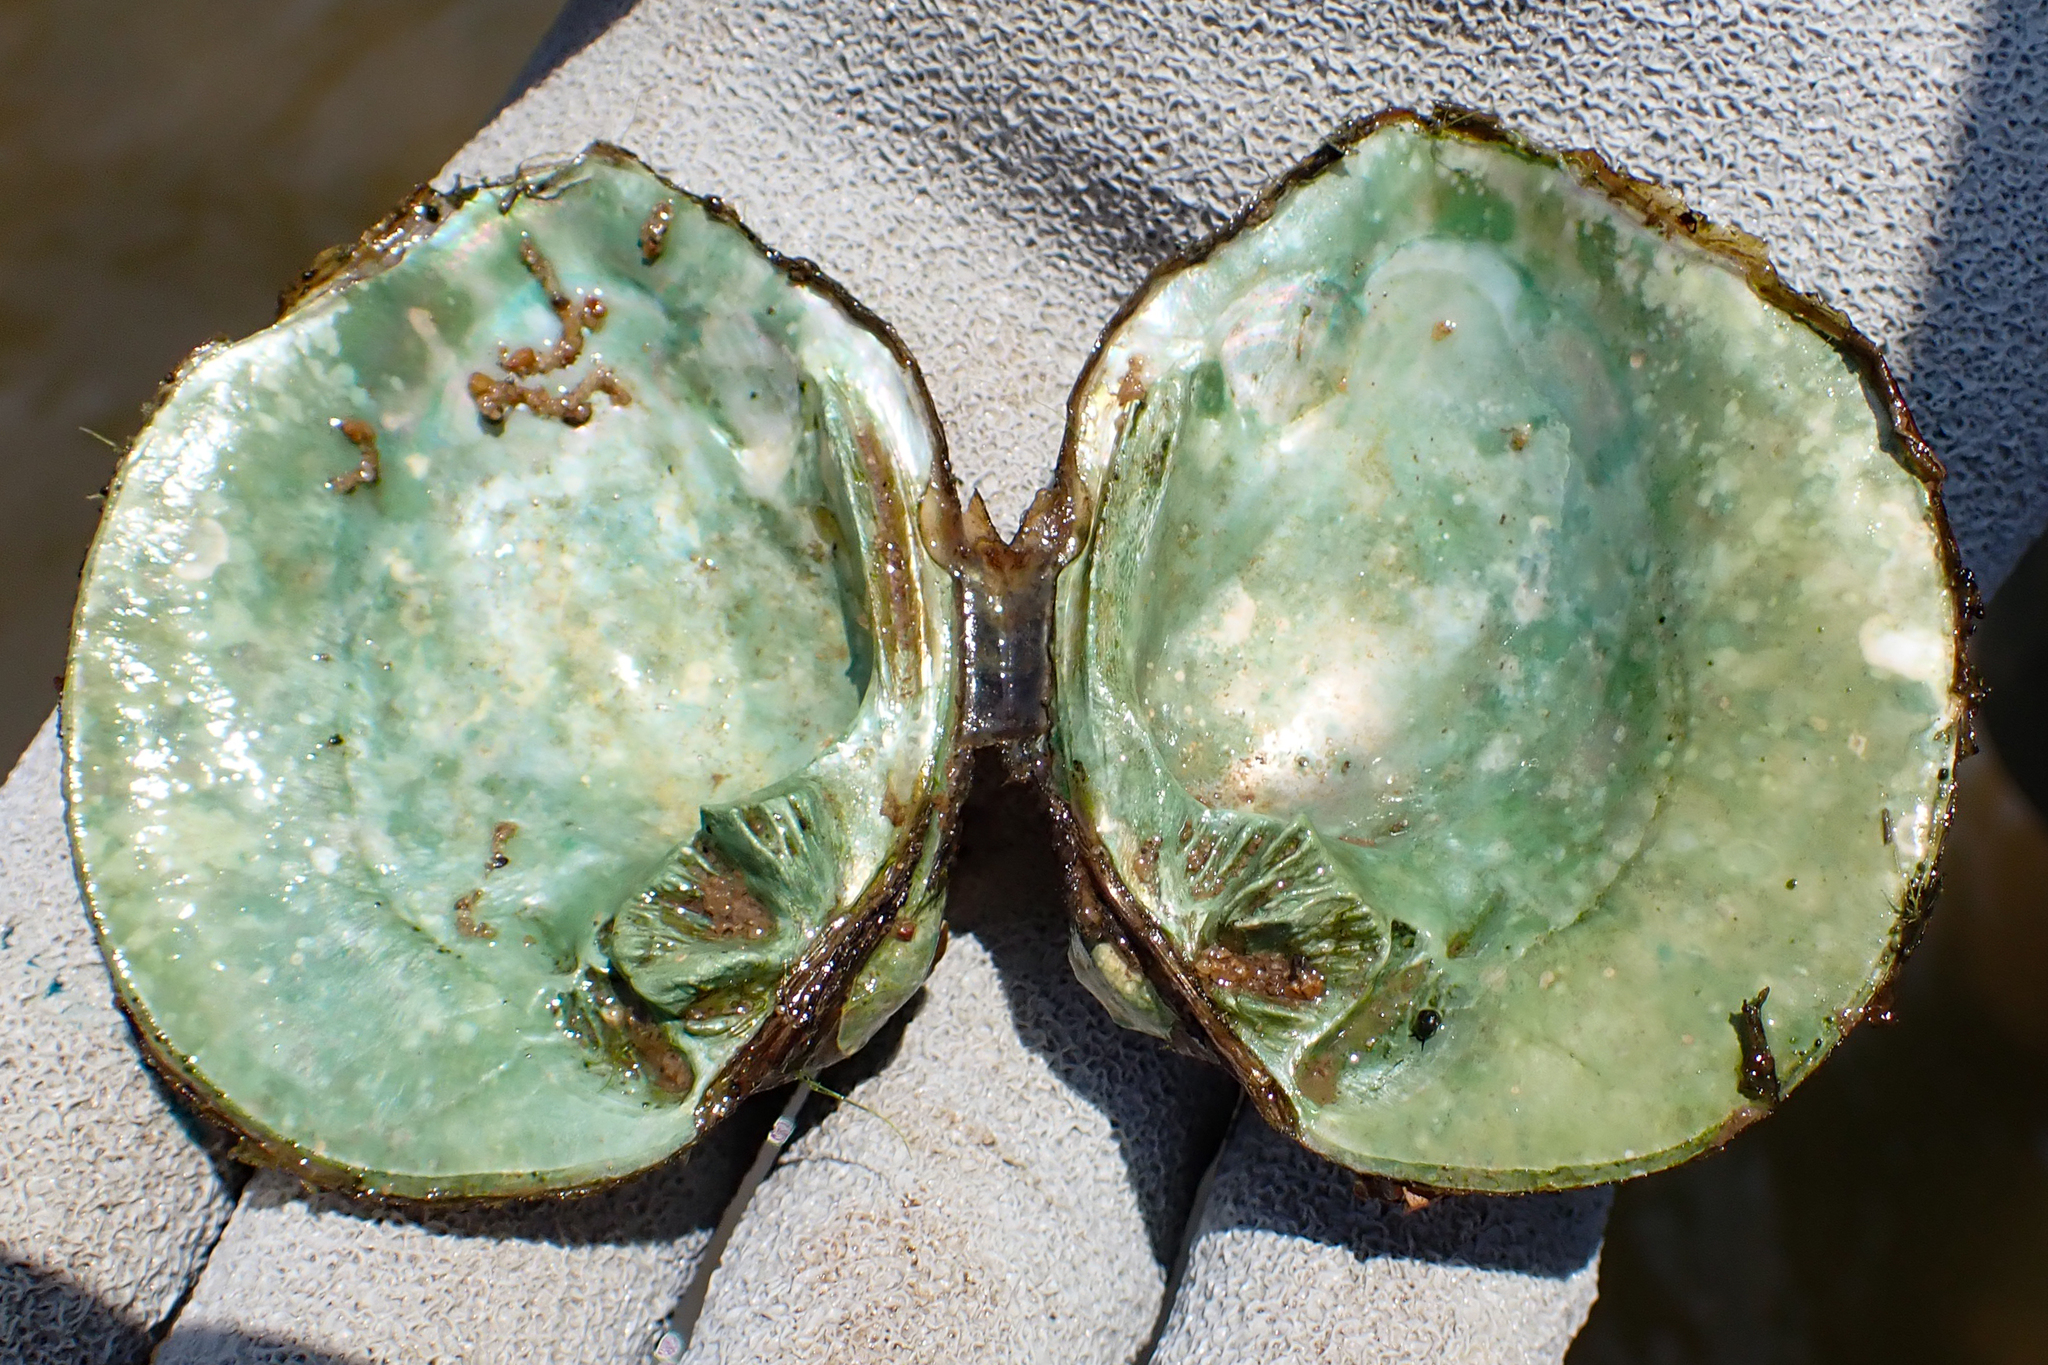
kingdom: Animalia
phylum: Mollusca
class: Bivalvia
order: Unionida
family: Unionidae
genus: Obliquaria
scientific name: Obliquaria reflexa
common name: Threehorn wartyback
